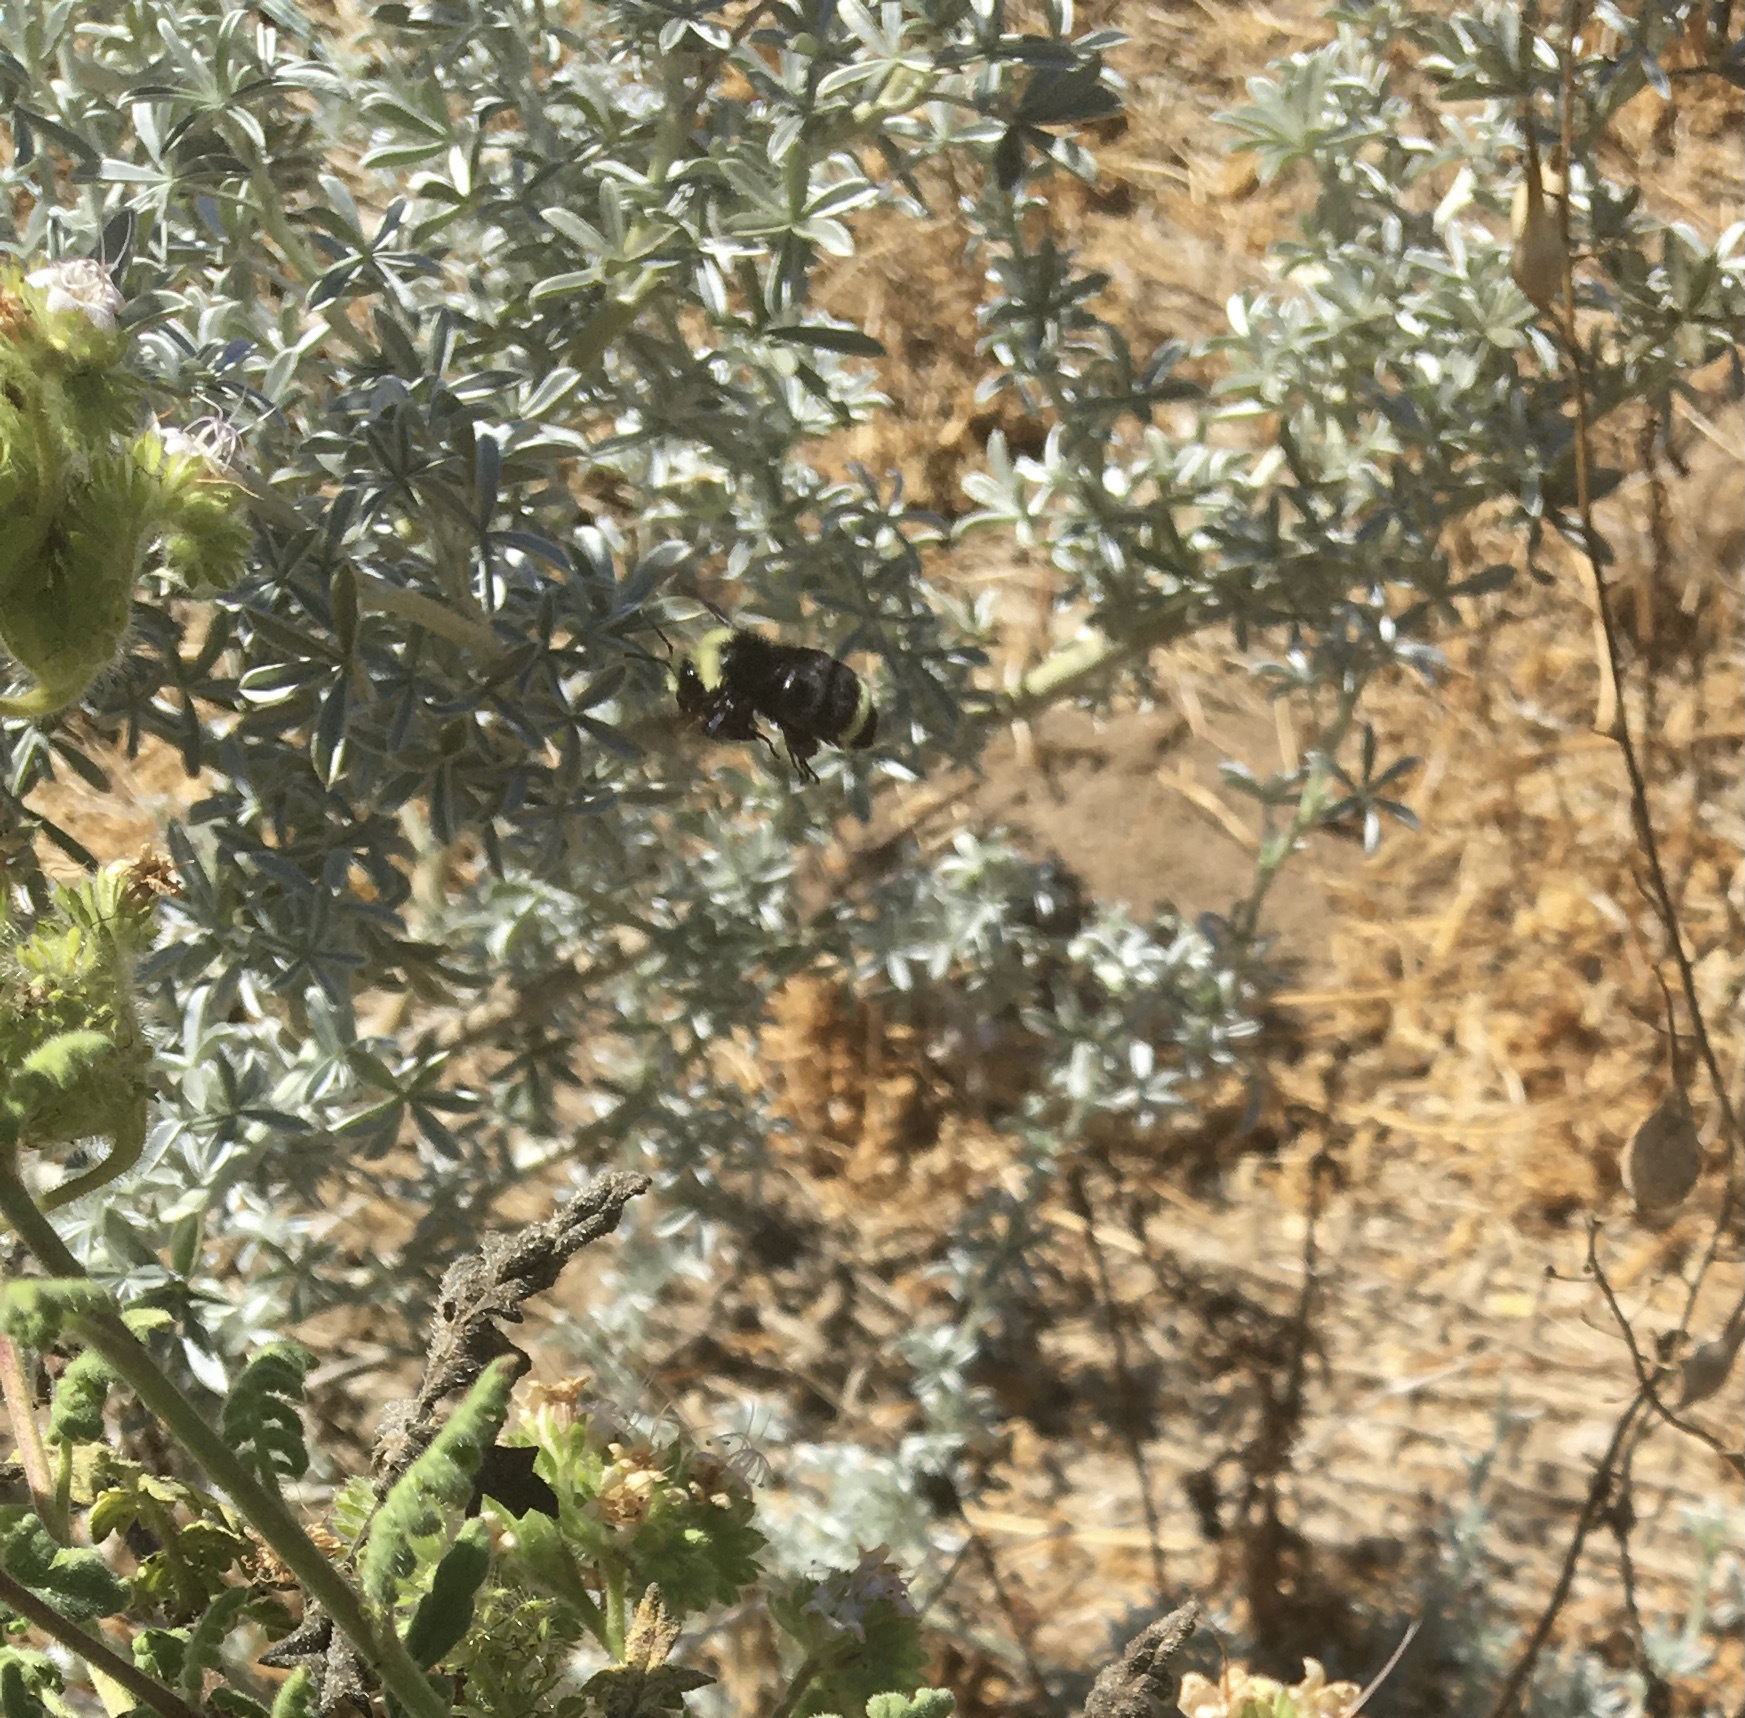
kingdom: Animalia
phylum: Arthropoda
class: Insecta
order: Hymenoptera
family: Apidae
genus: Bombus
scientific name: Bombus vosnesenskii
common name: Vosnesensky bumble bee
